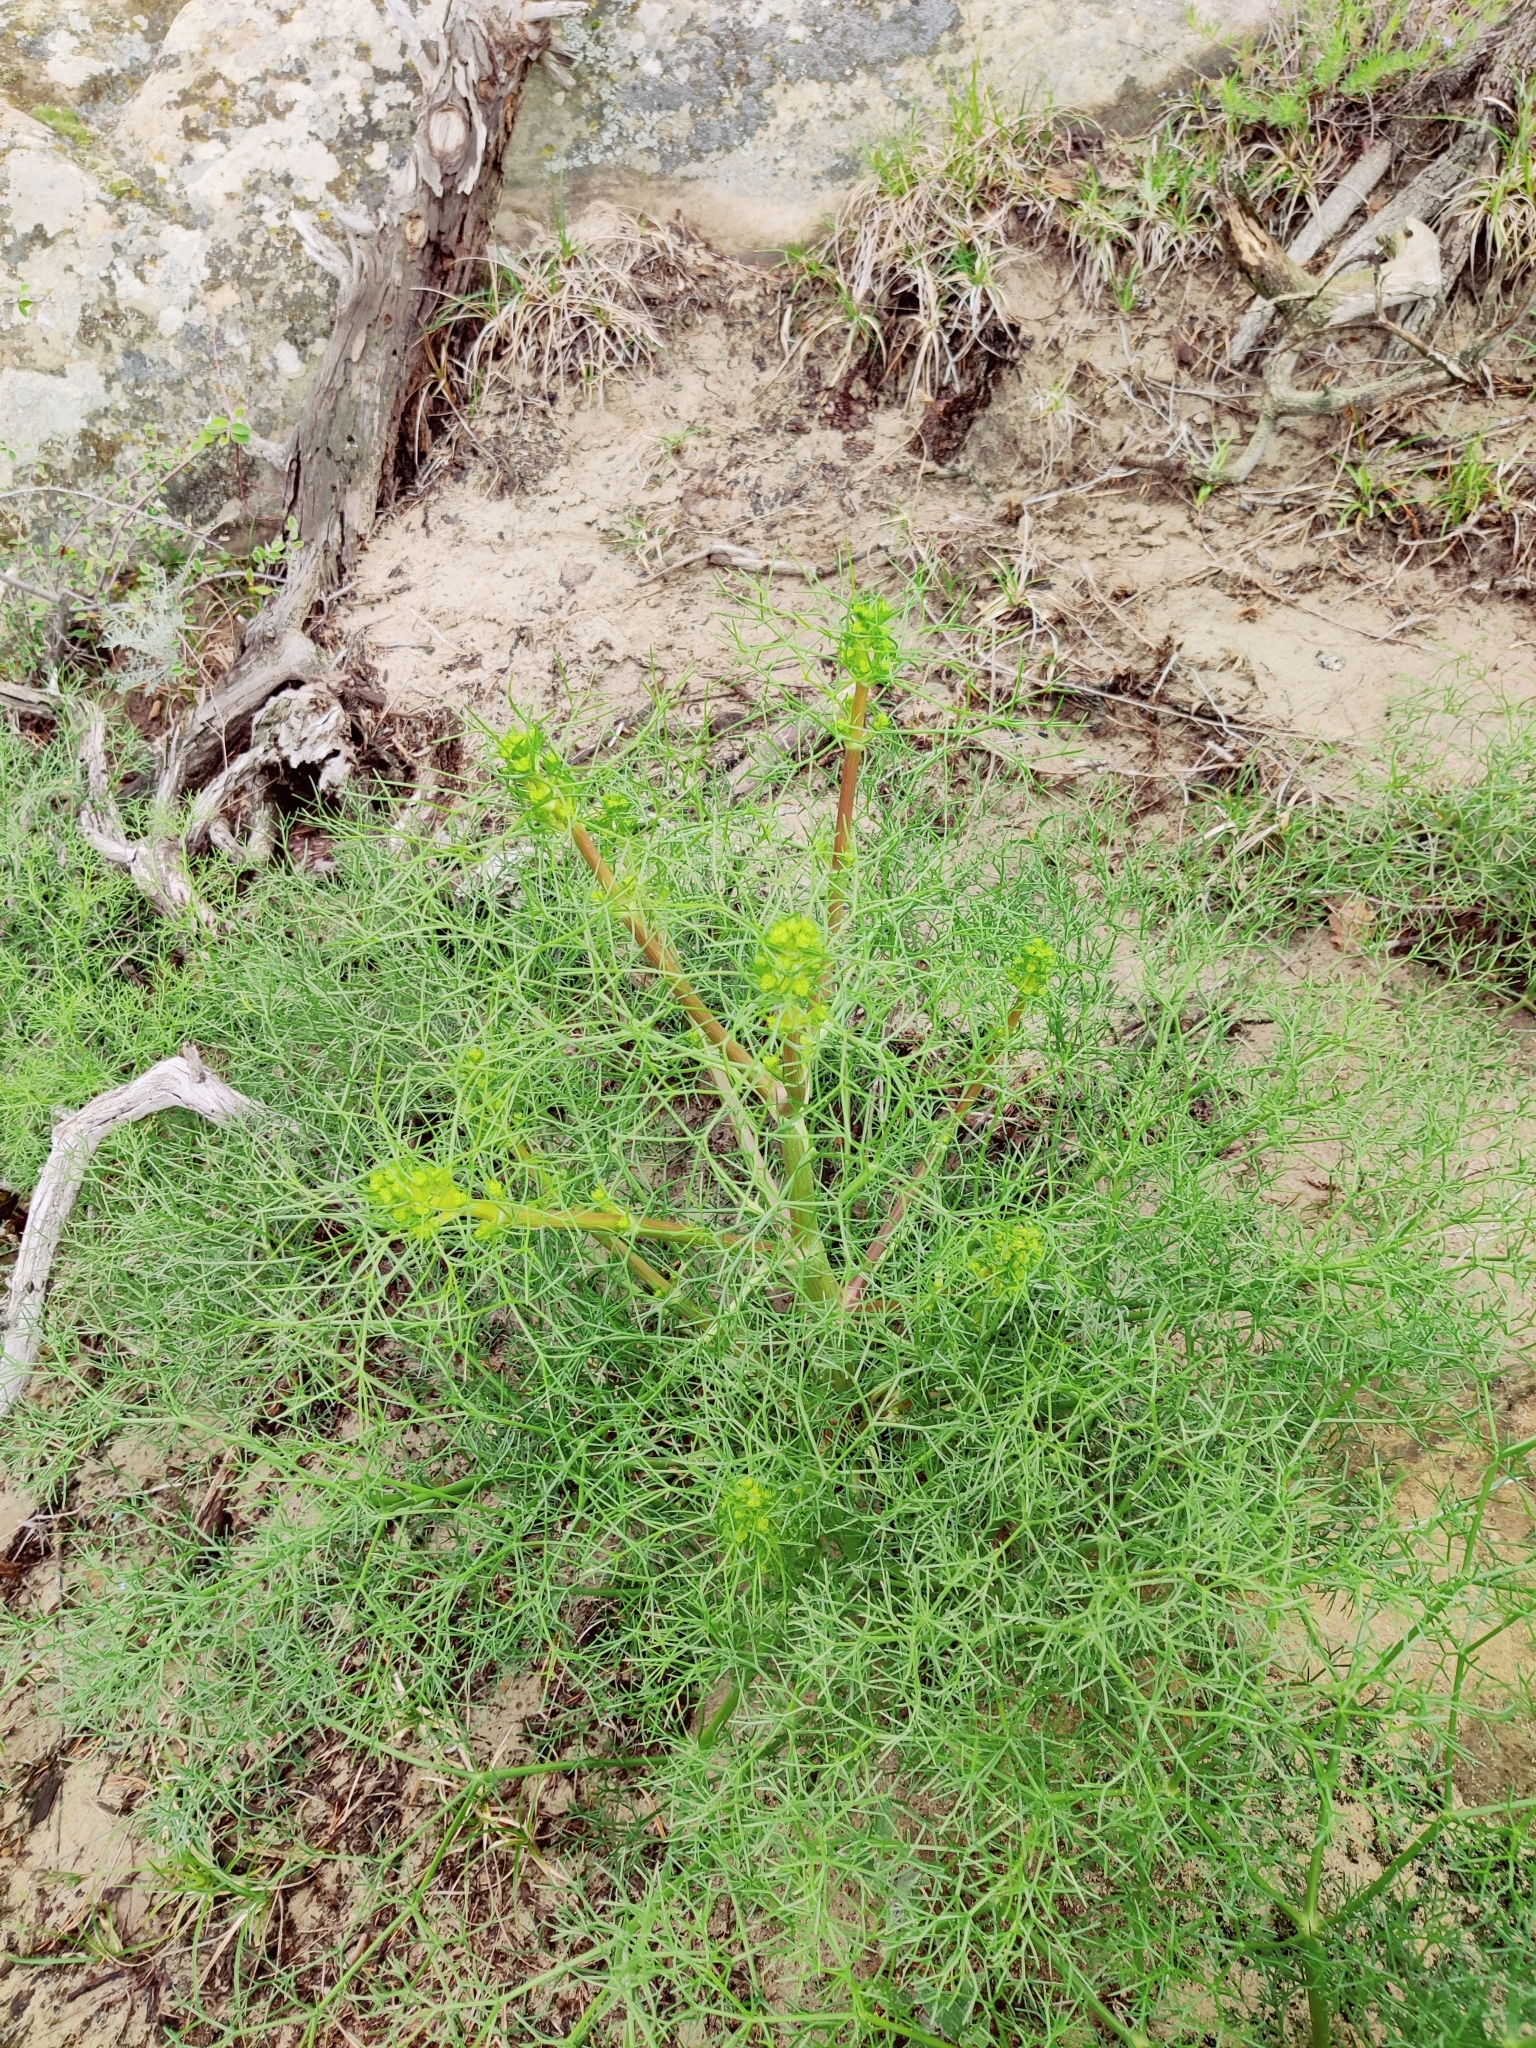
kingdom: Plantae
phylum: Tracheophyta
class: Magnoliopsida
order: Apiales
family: Apiaceae
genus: Bilacunaria
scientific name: Bilacunaria microcarpa
